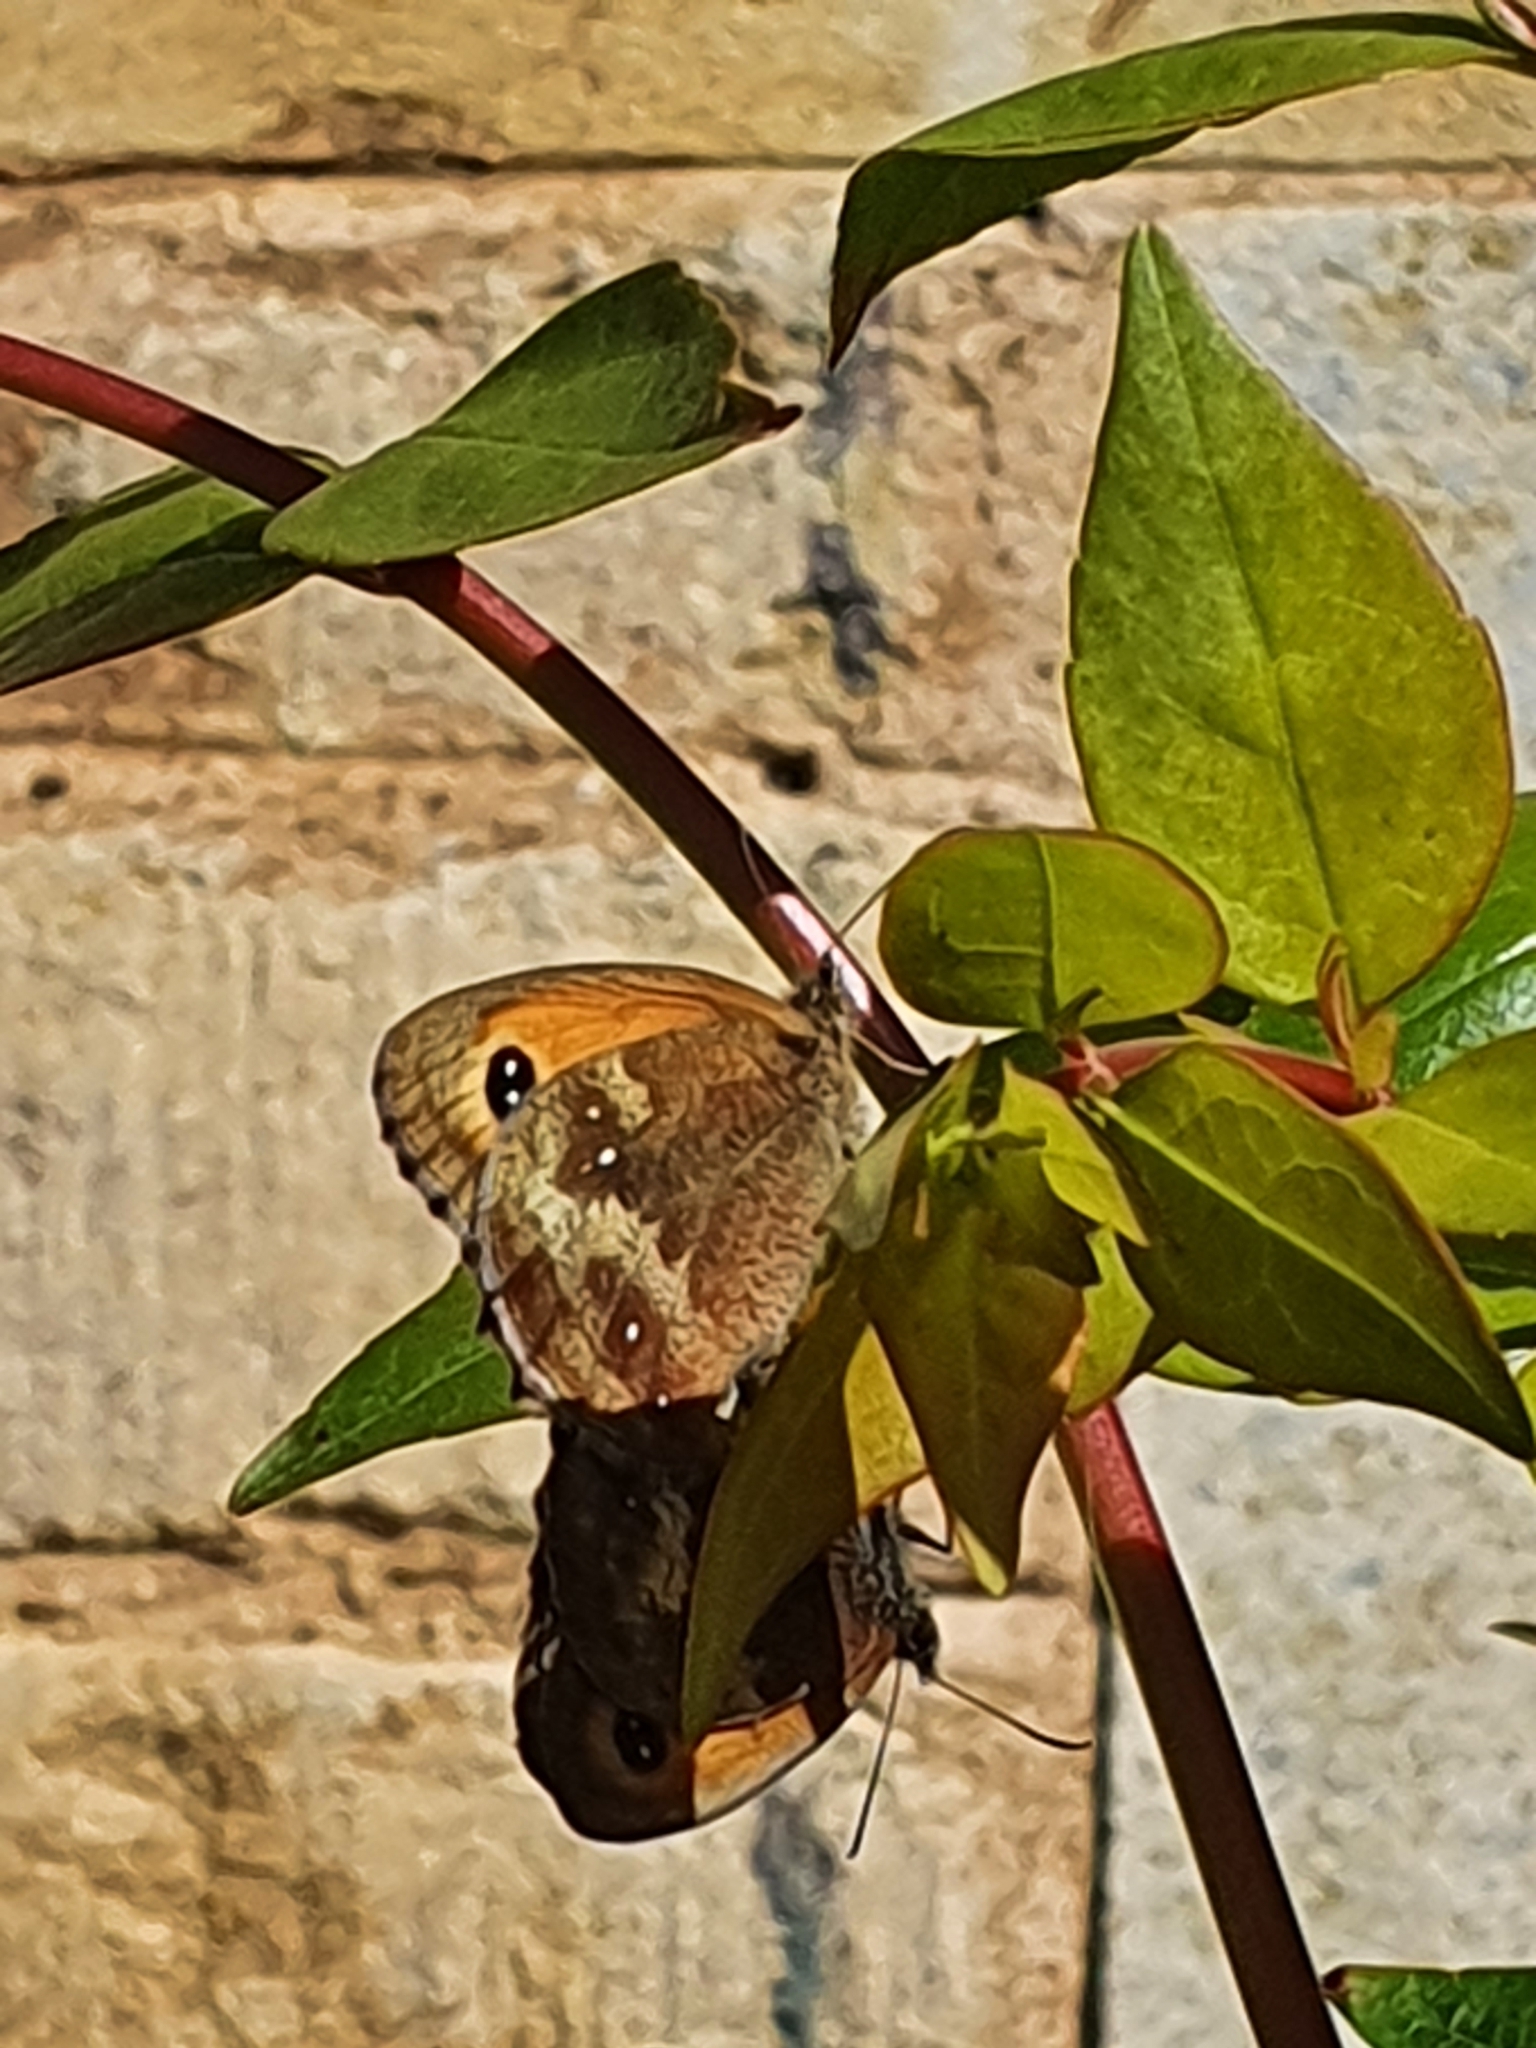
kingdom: Animalia
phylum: Arthropoda
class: Insecta
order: Lepidoptera
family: Nymphalidae
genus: Pyronia
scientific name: Pyronia tithonus
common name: Gatekeeper
